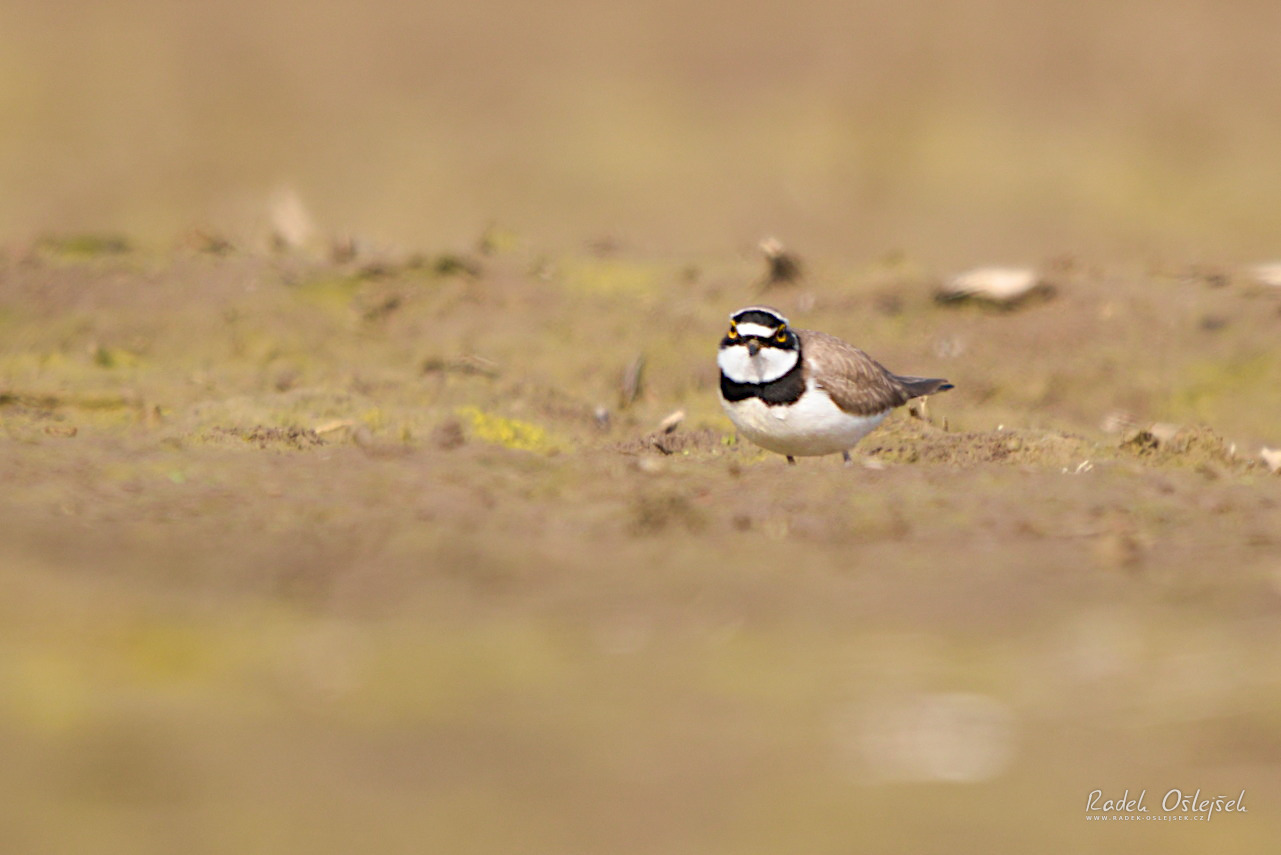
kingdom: Animalia
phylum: Chordata
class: Aves
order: Charadriiformes
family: Charadriidae
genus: Charadrius
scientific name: Charadrius dubius
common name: Little ringed plover
